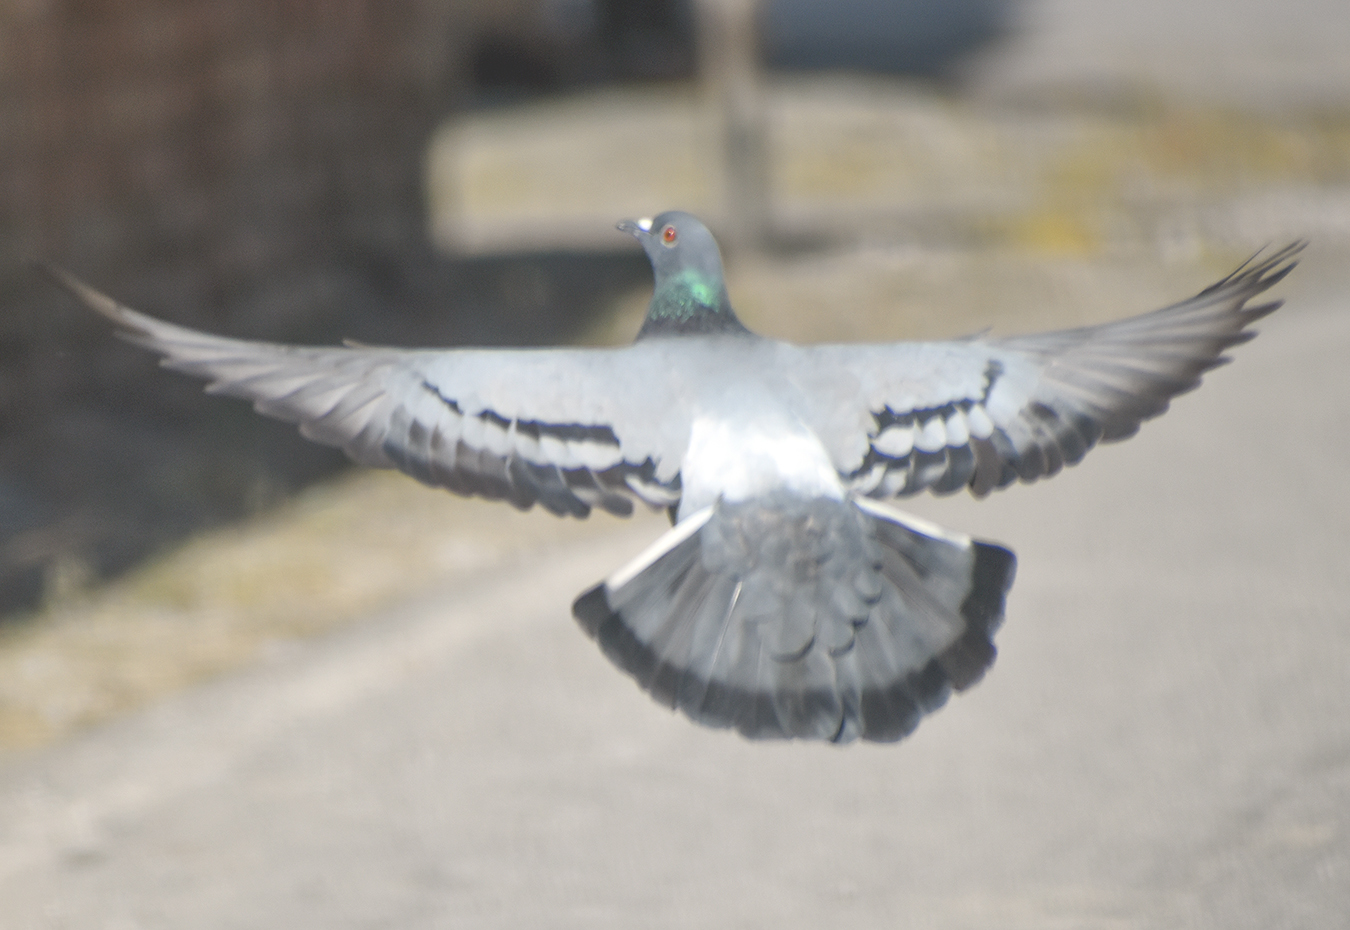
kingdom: Animalia
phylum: Chordata
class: Aves
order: Columbiformes
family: Columbidae
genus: Columba
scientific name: Columba livia
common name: Rock pigeon
